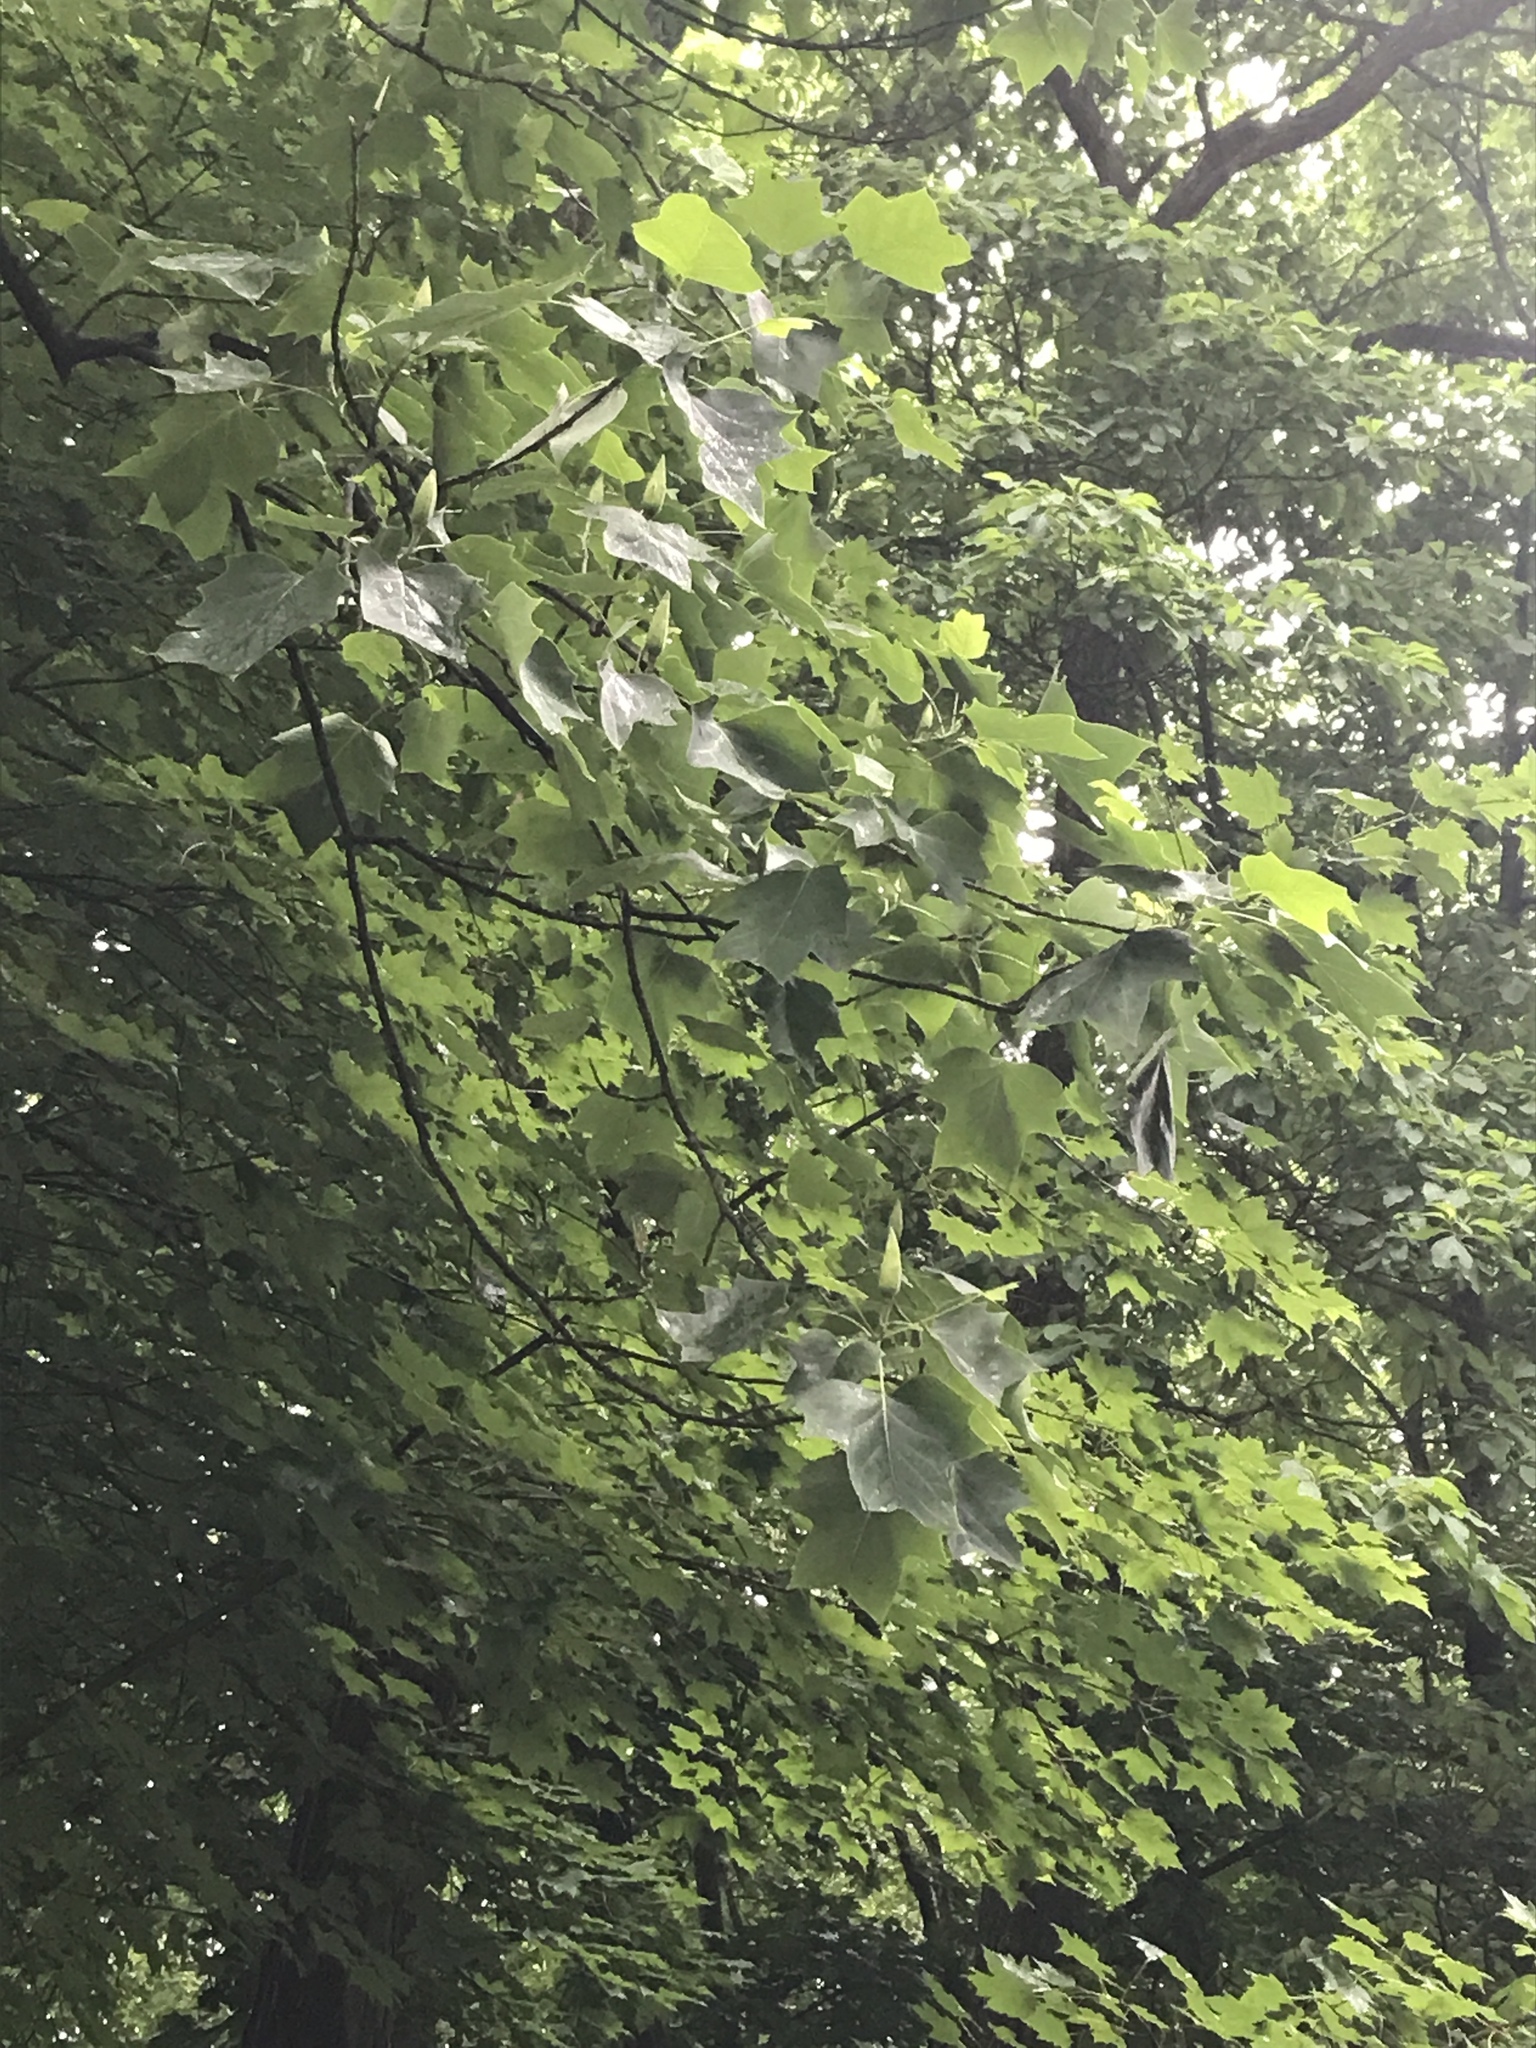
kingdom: Plantae
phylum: Tracheophyta
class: Magnoliopsida
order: Magnoliales
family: Magnoliaceae
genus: Liriodendron
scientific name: Liriodendron tulipifera
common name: Tulip tree
